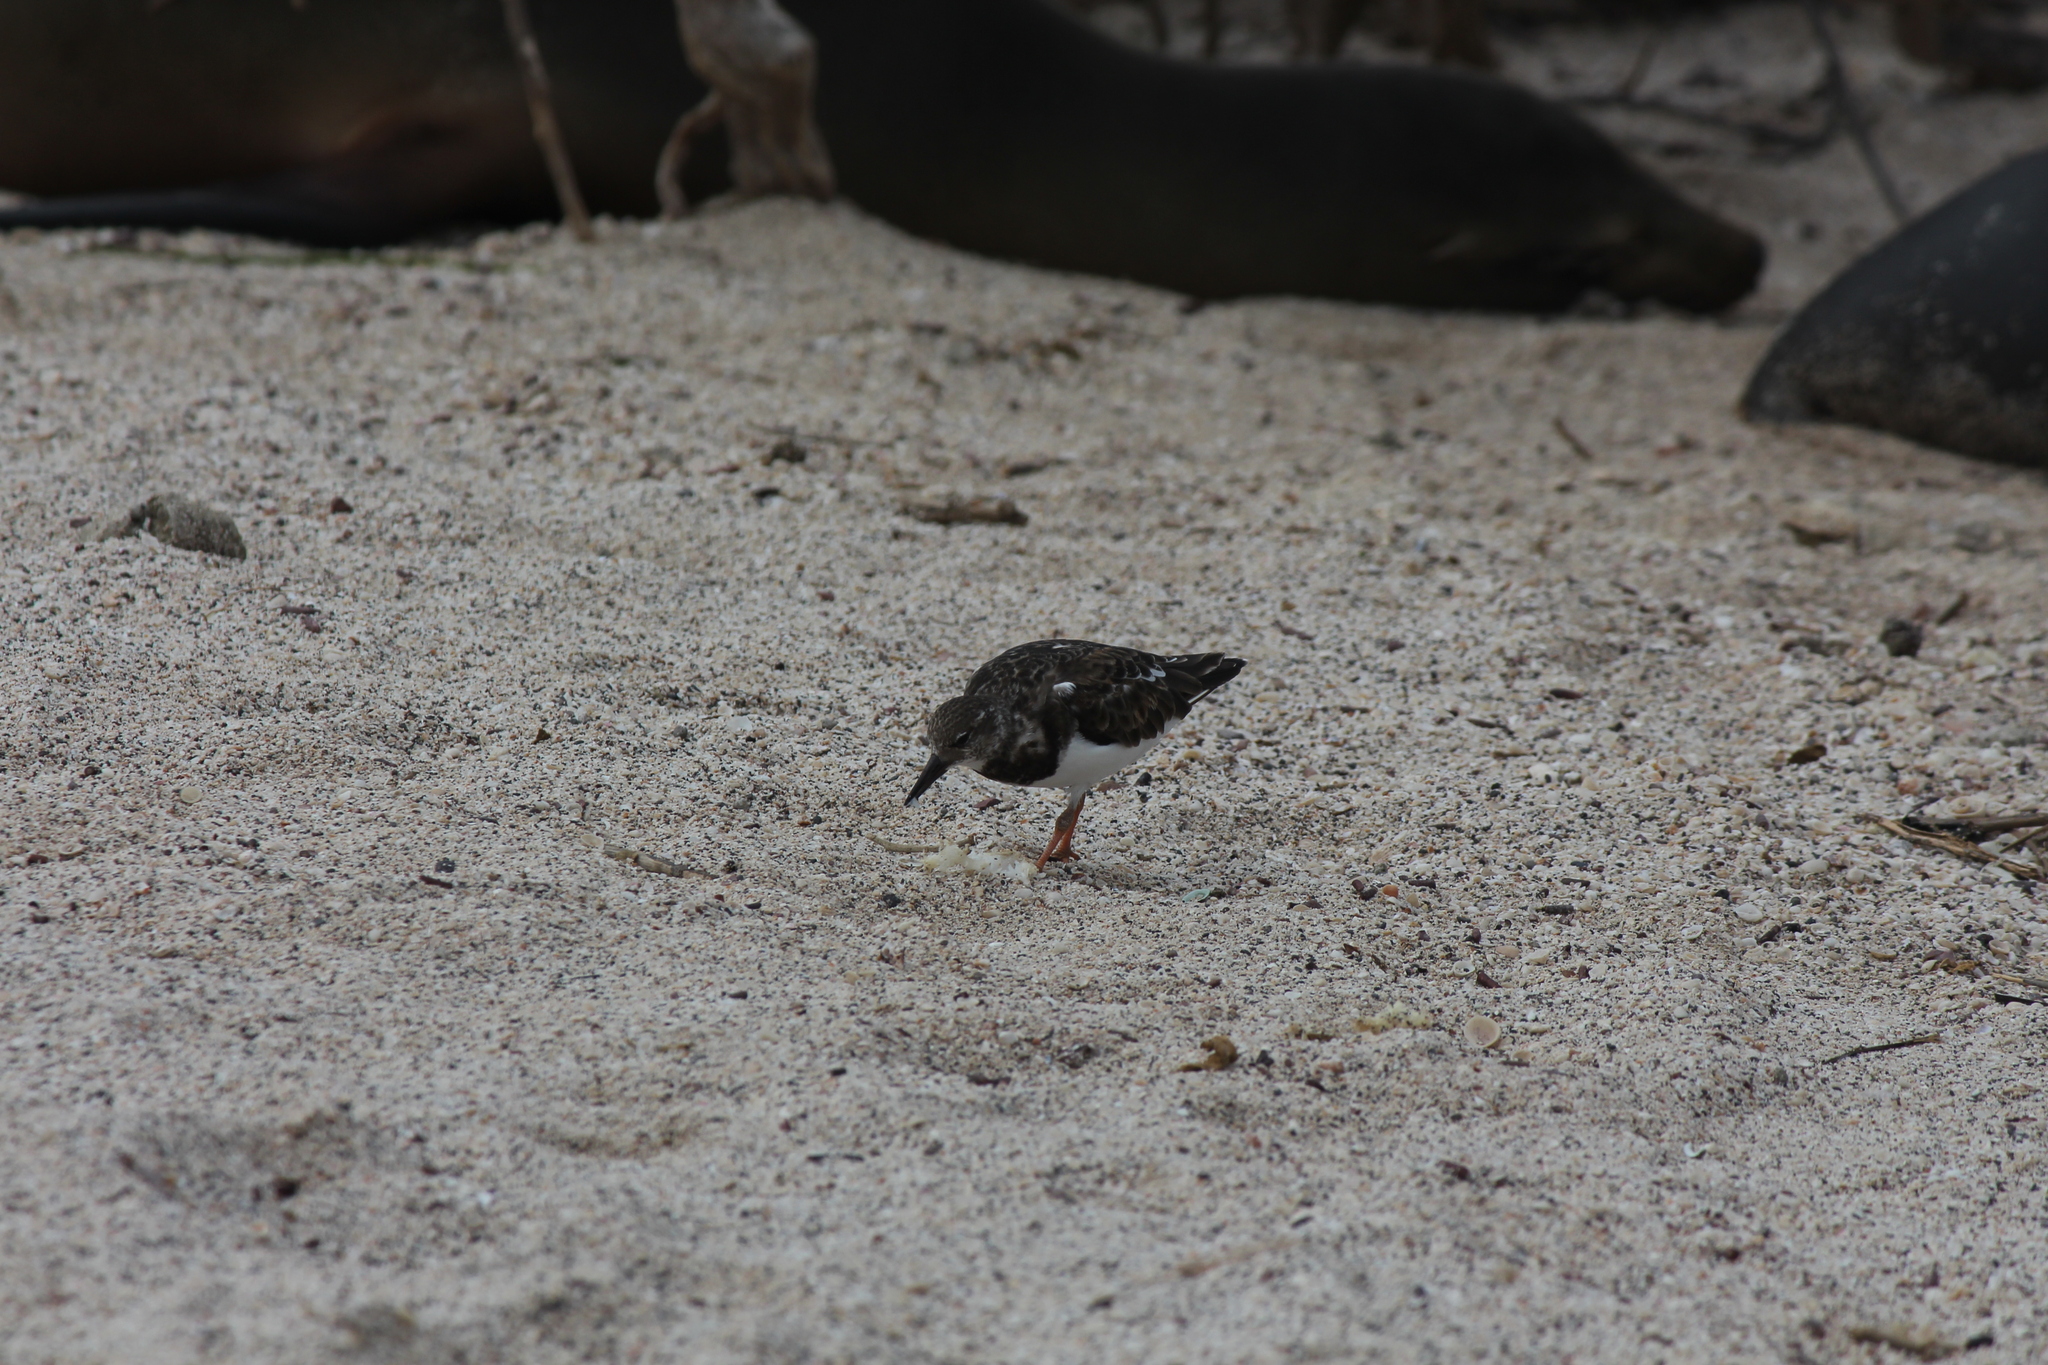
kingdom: Animalia
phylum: Chordata
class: Aves
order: Charadriiformes
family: Scolopacidae
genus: Arenaria
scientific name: Arenaria interpres
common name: Ruddy turnstone
